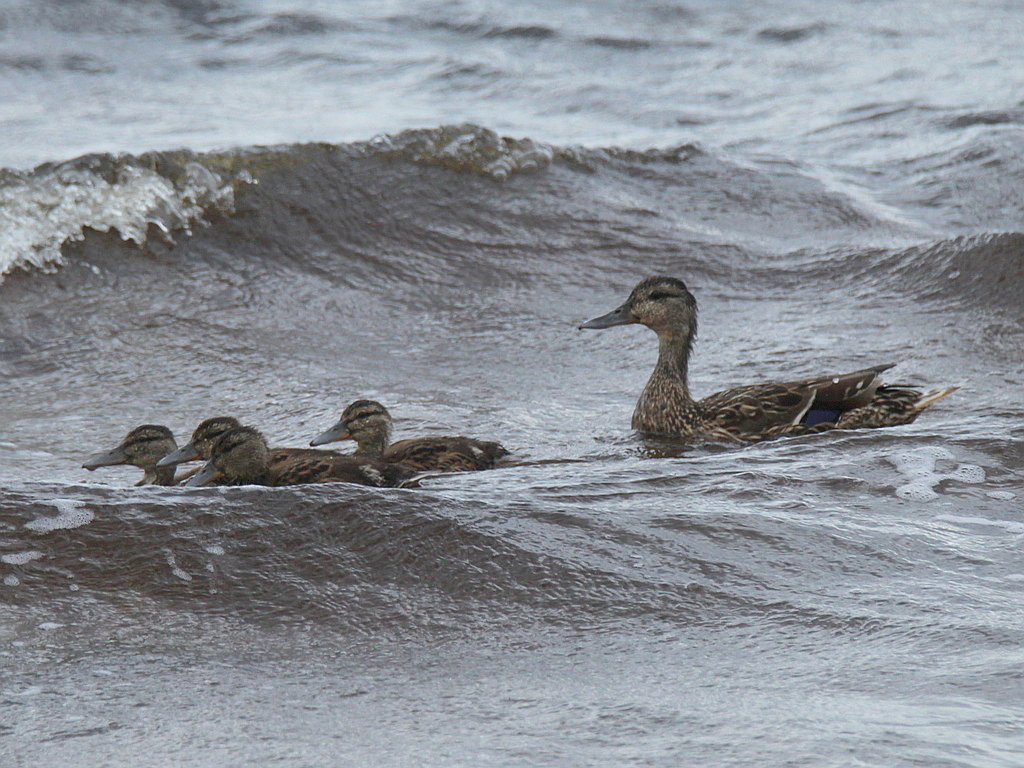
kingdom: Animalia
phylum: Chordata
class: Aves
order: Anseriformes
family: Anatidae
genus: Anas
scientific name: Anas platyrhynchos
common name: Mallard
